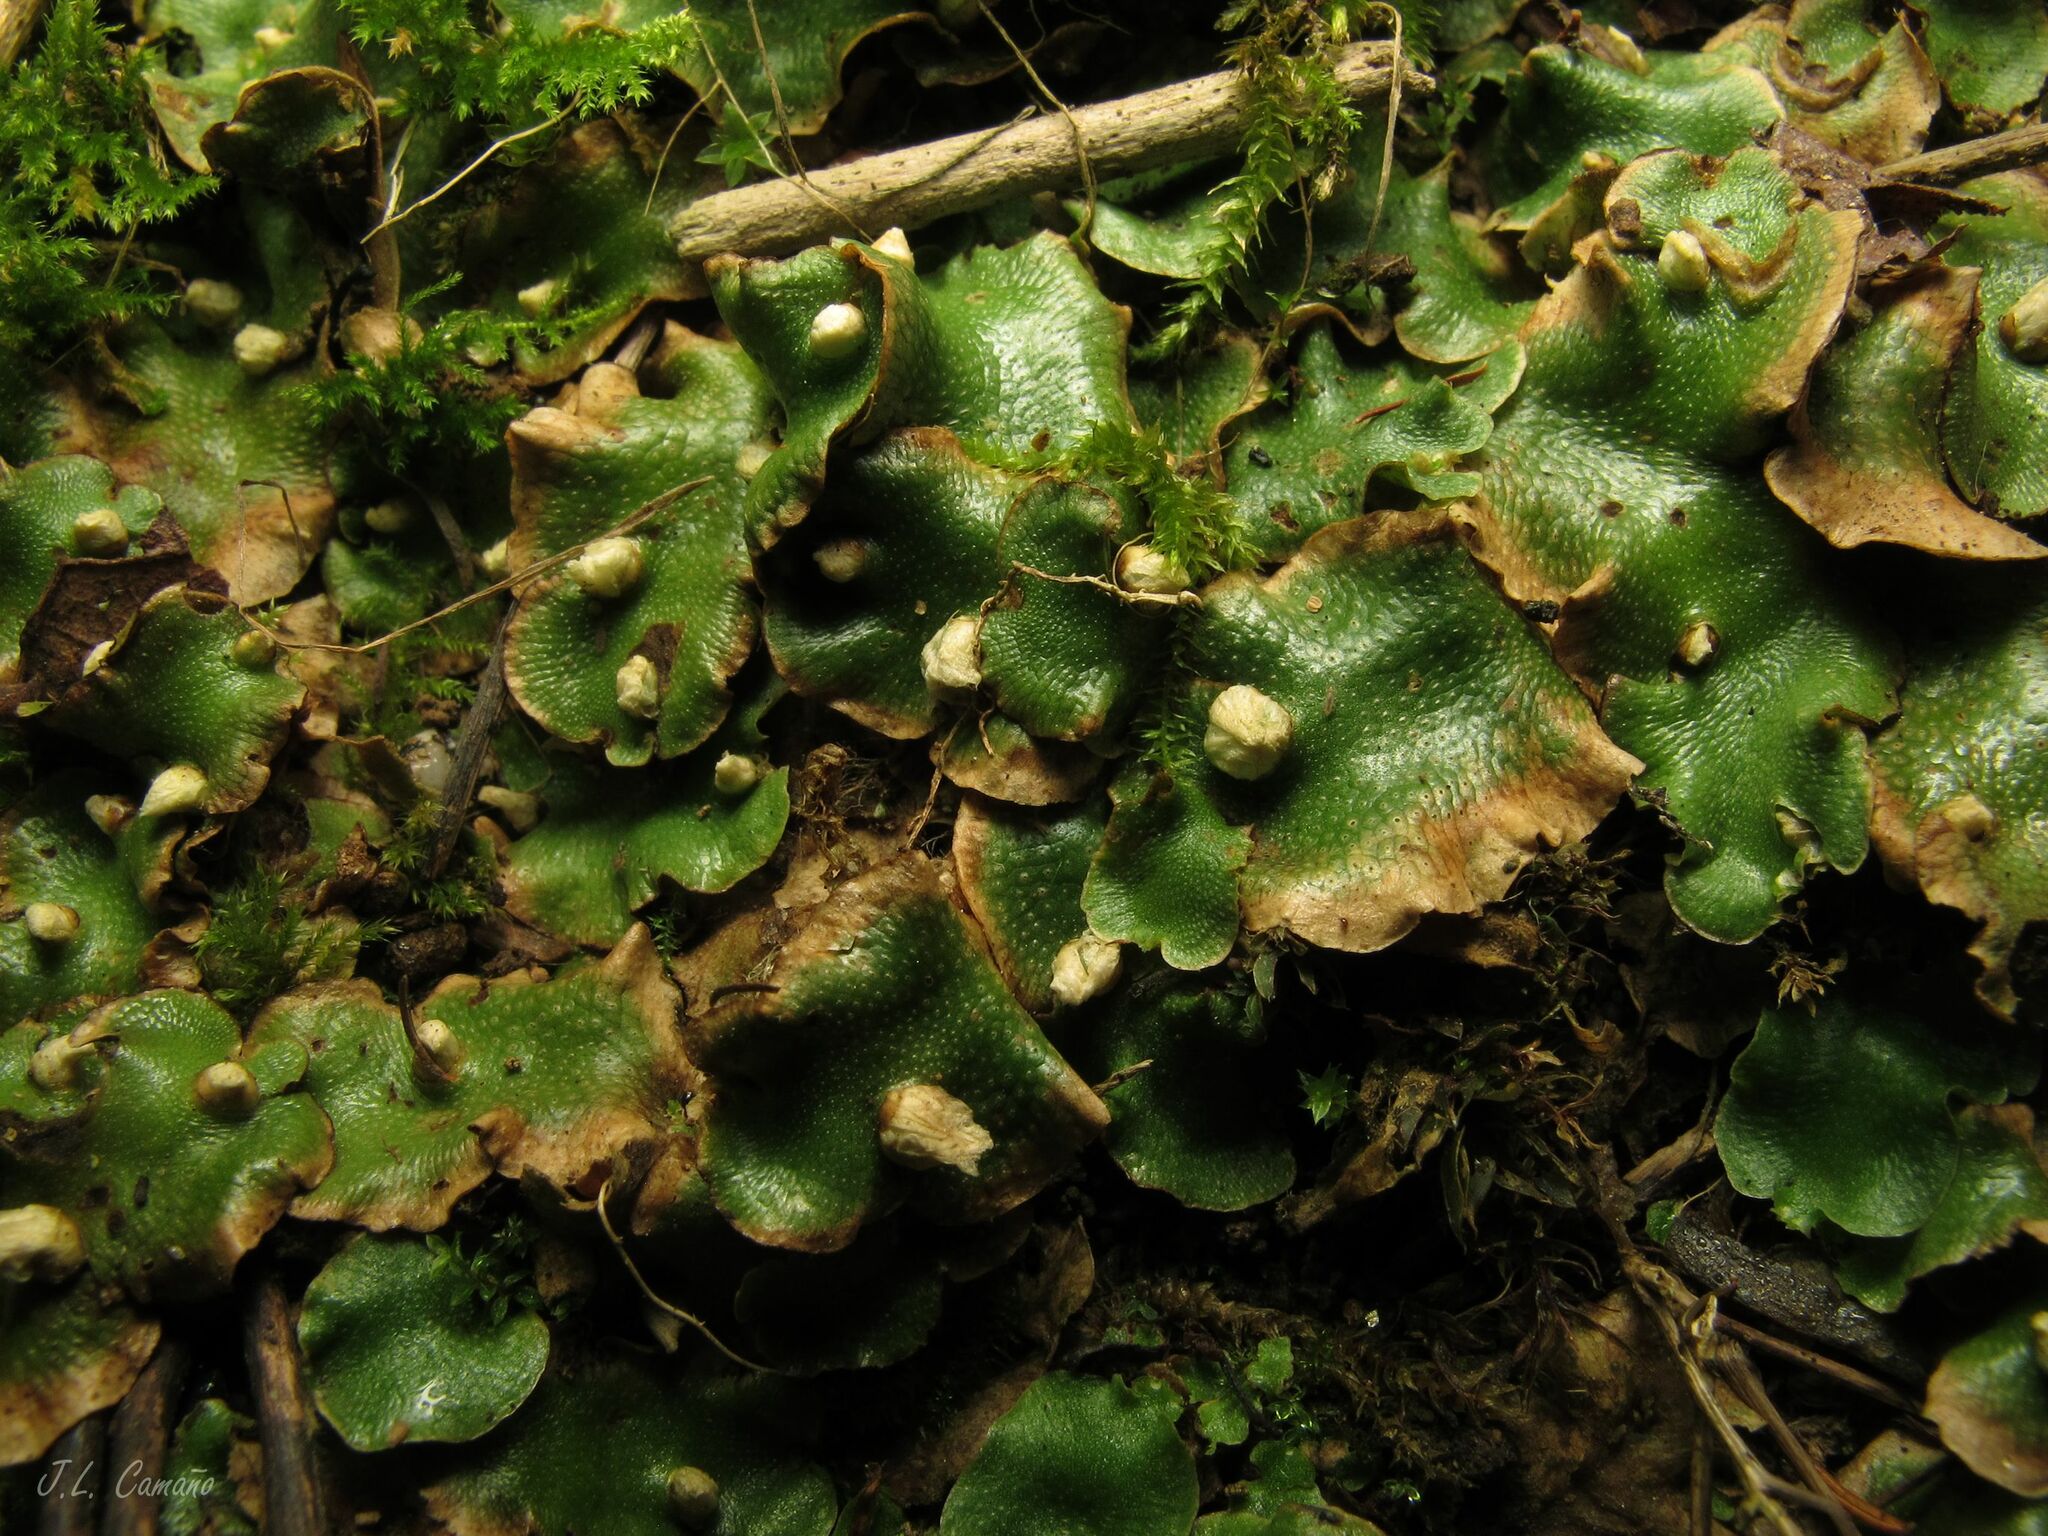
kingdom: Plantae
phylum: Marchantiophyta
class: Marchantiopsida
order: Lunulariales
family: Lunulariaceae
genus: Lunularia
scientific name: Lunularia cruciata
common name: Crescent-cup liverwort
